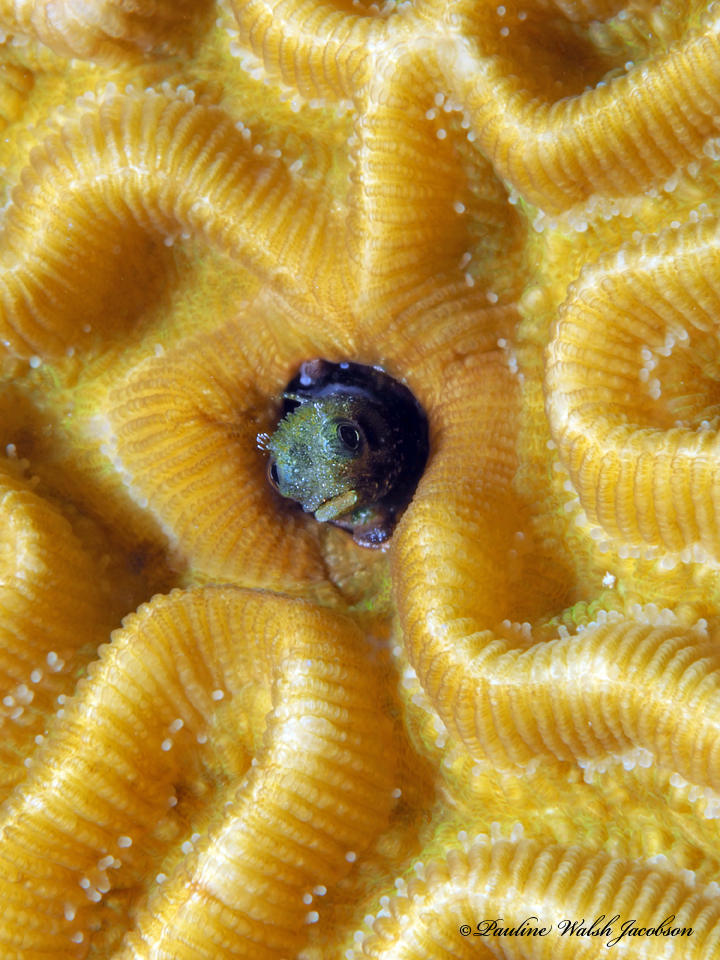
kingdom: Animalia
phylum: Chordata
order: Perciformes
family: Chaenopsidae
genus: Acanthemblemaria
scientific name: Acanthemblemaria spinosa
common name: Spinyhead blenny
